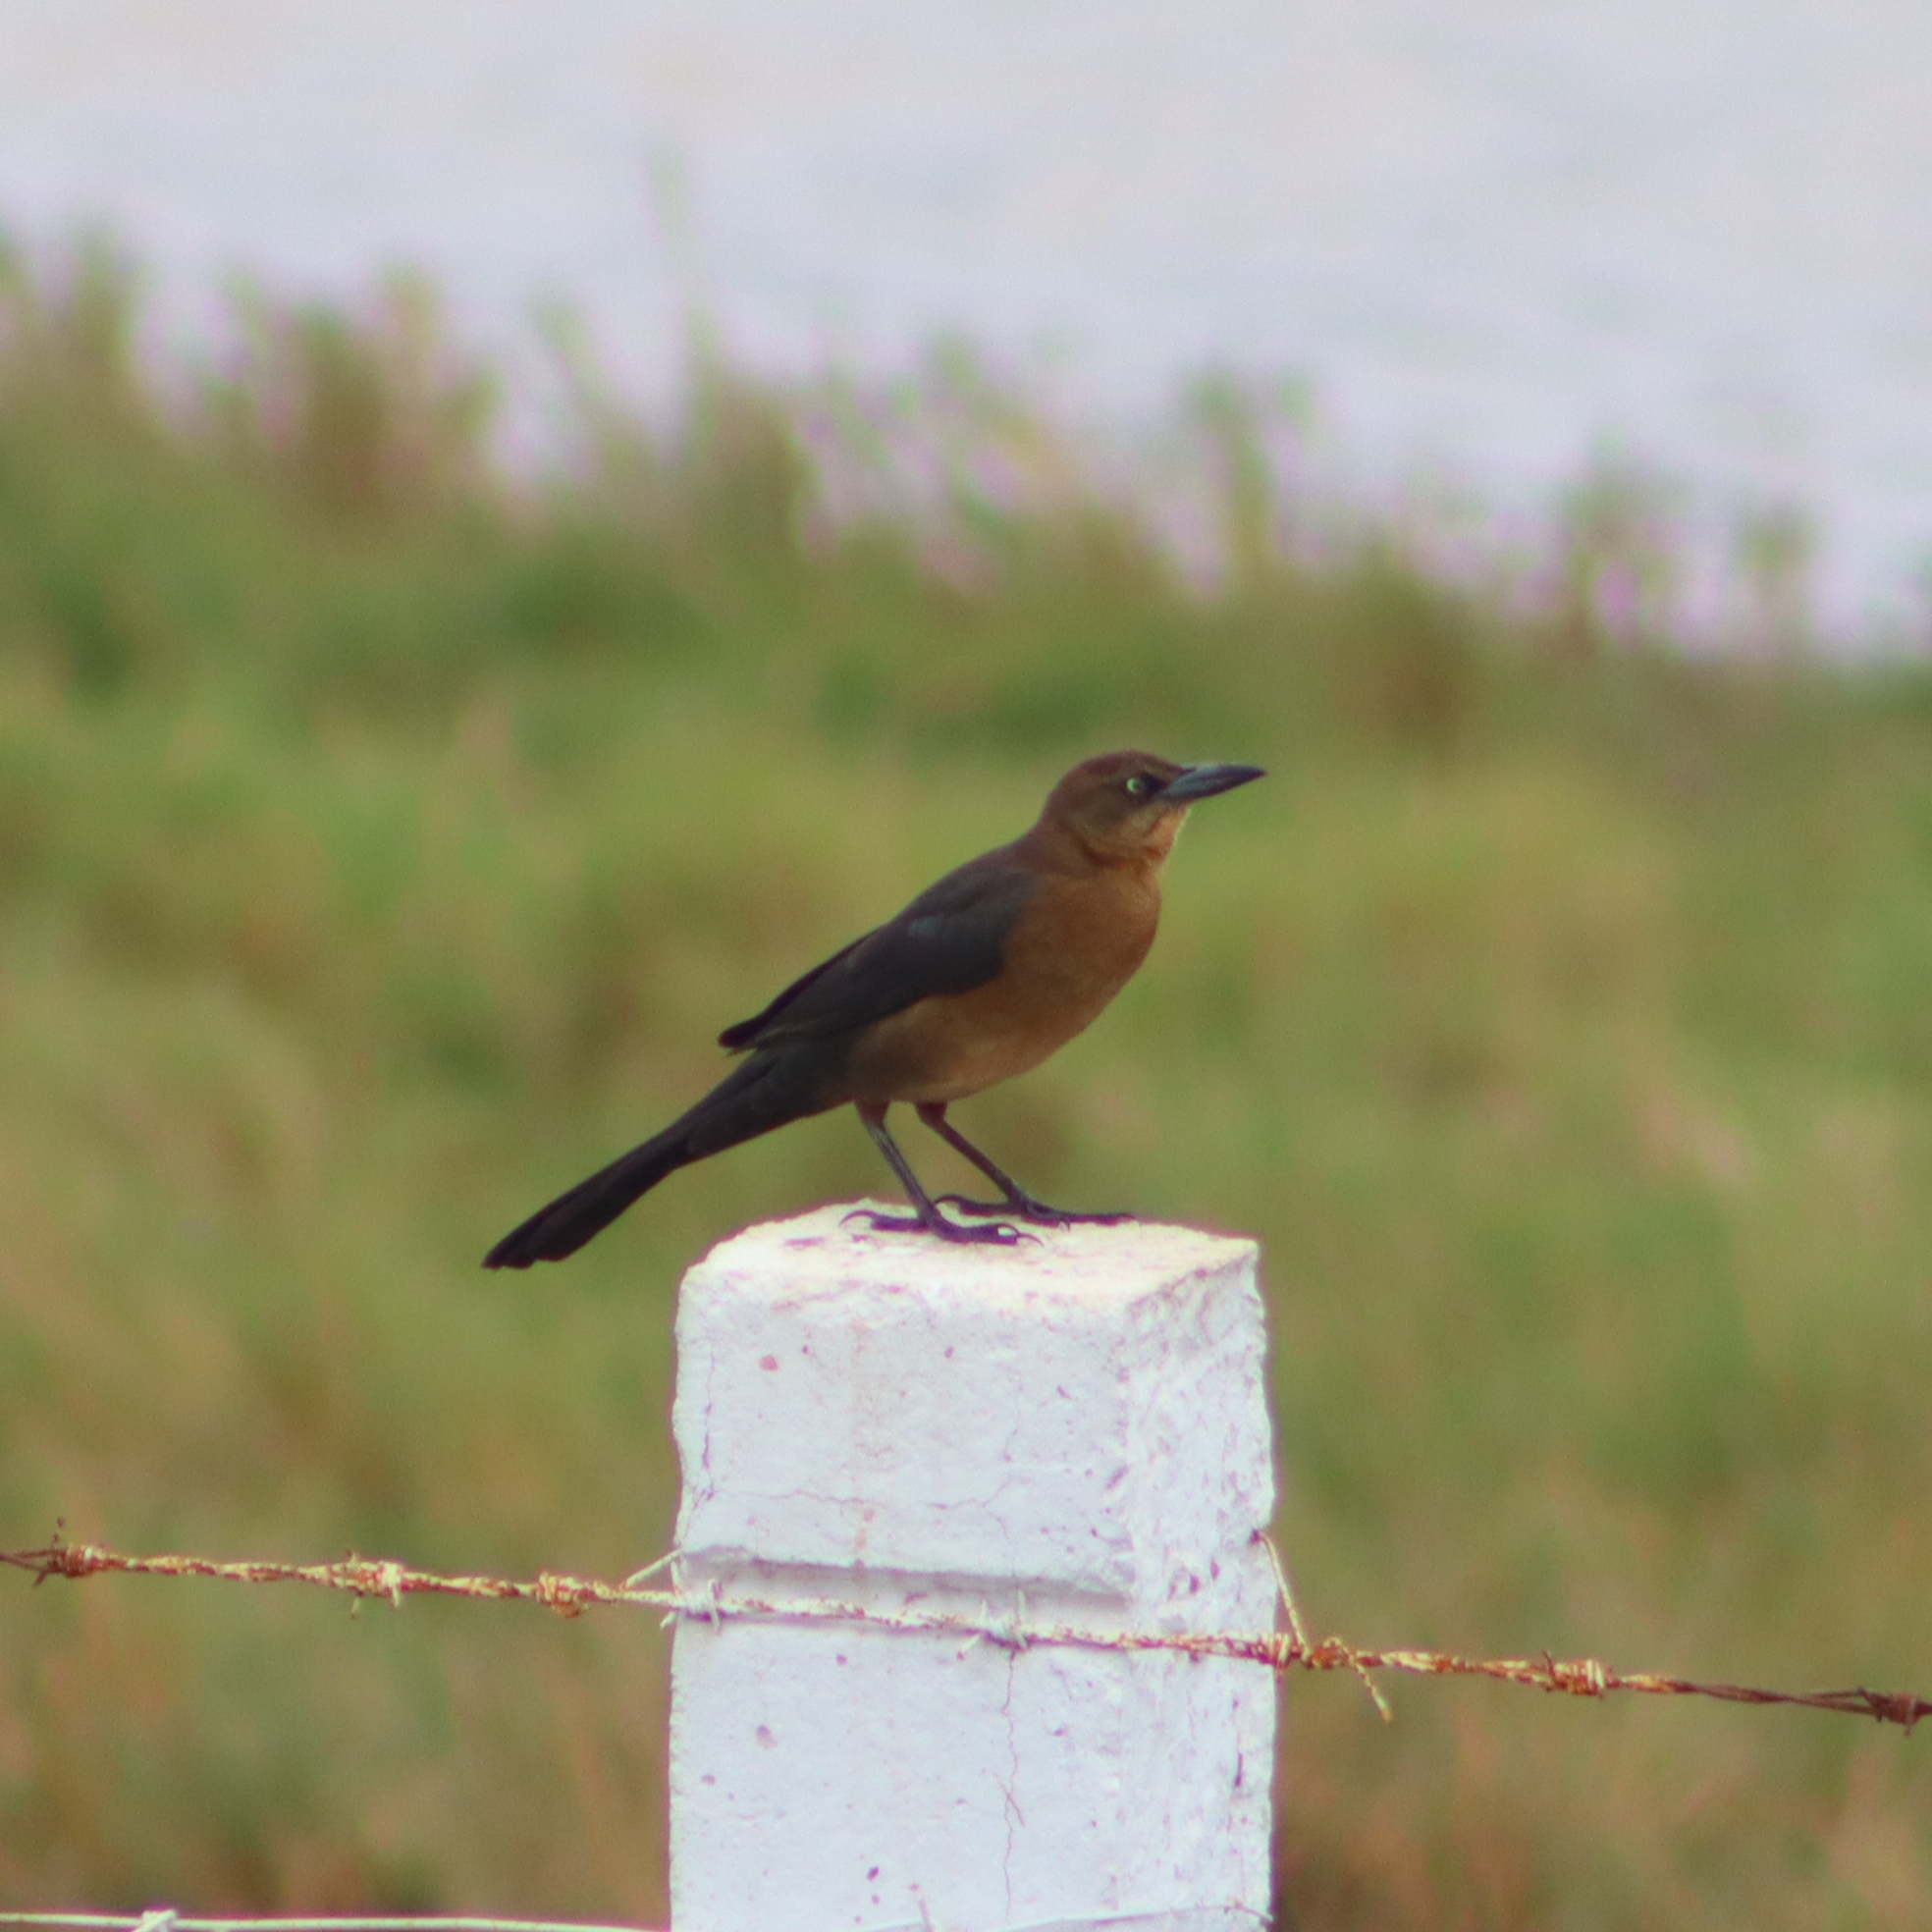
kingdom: Animalia
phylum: Chordata
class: Aves
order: Passeriformes
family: Icteridae
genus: Quiscalus
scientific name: Quiscalus mexicanus
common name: Great-tailed grackle
